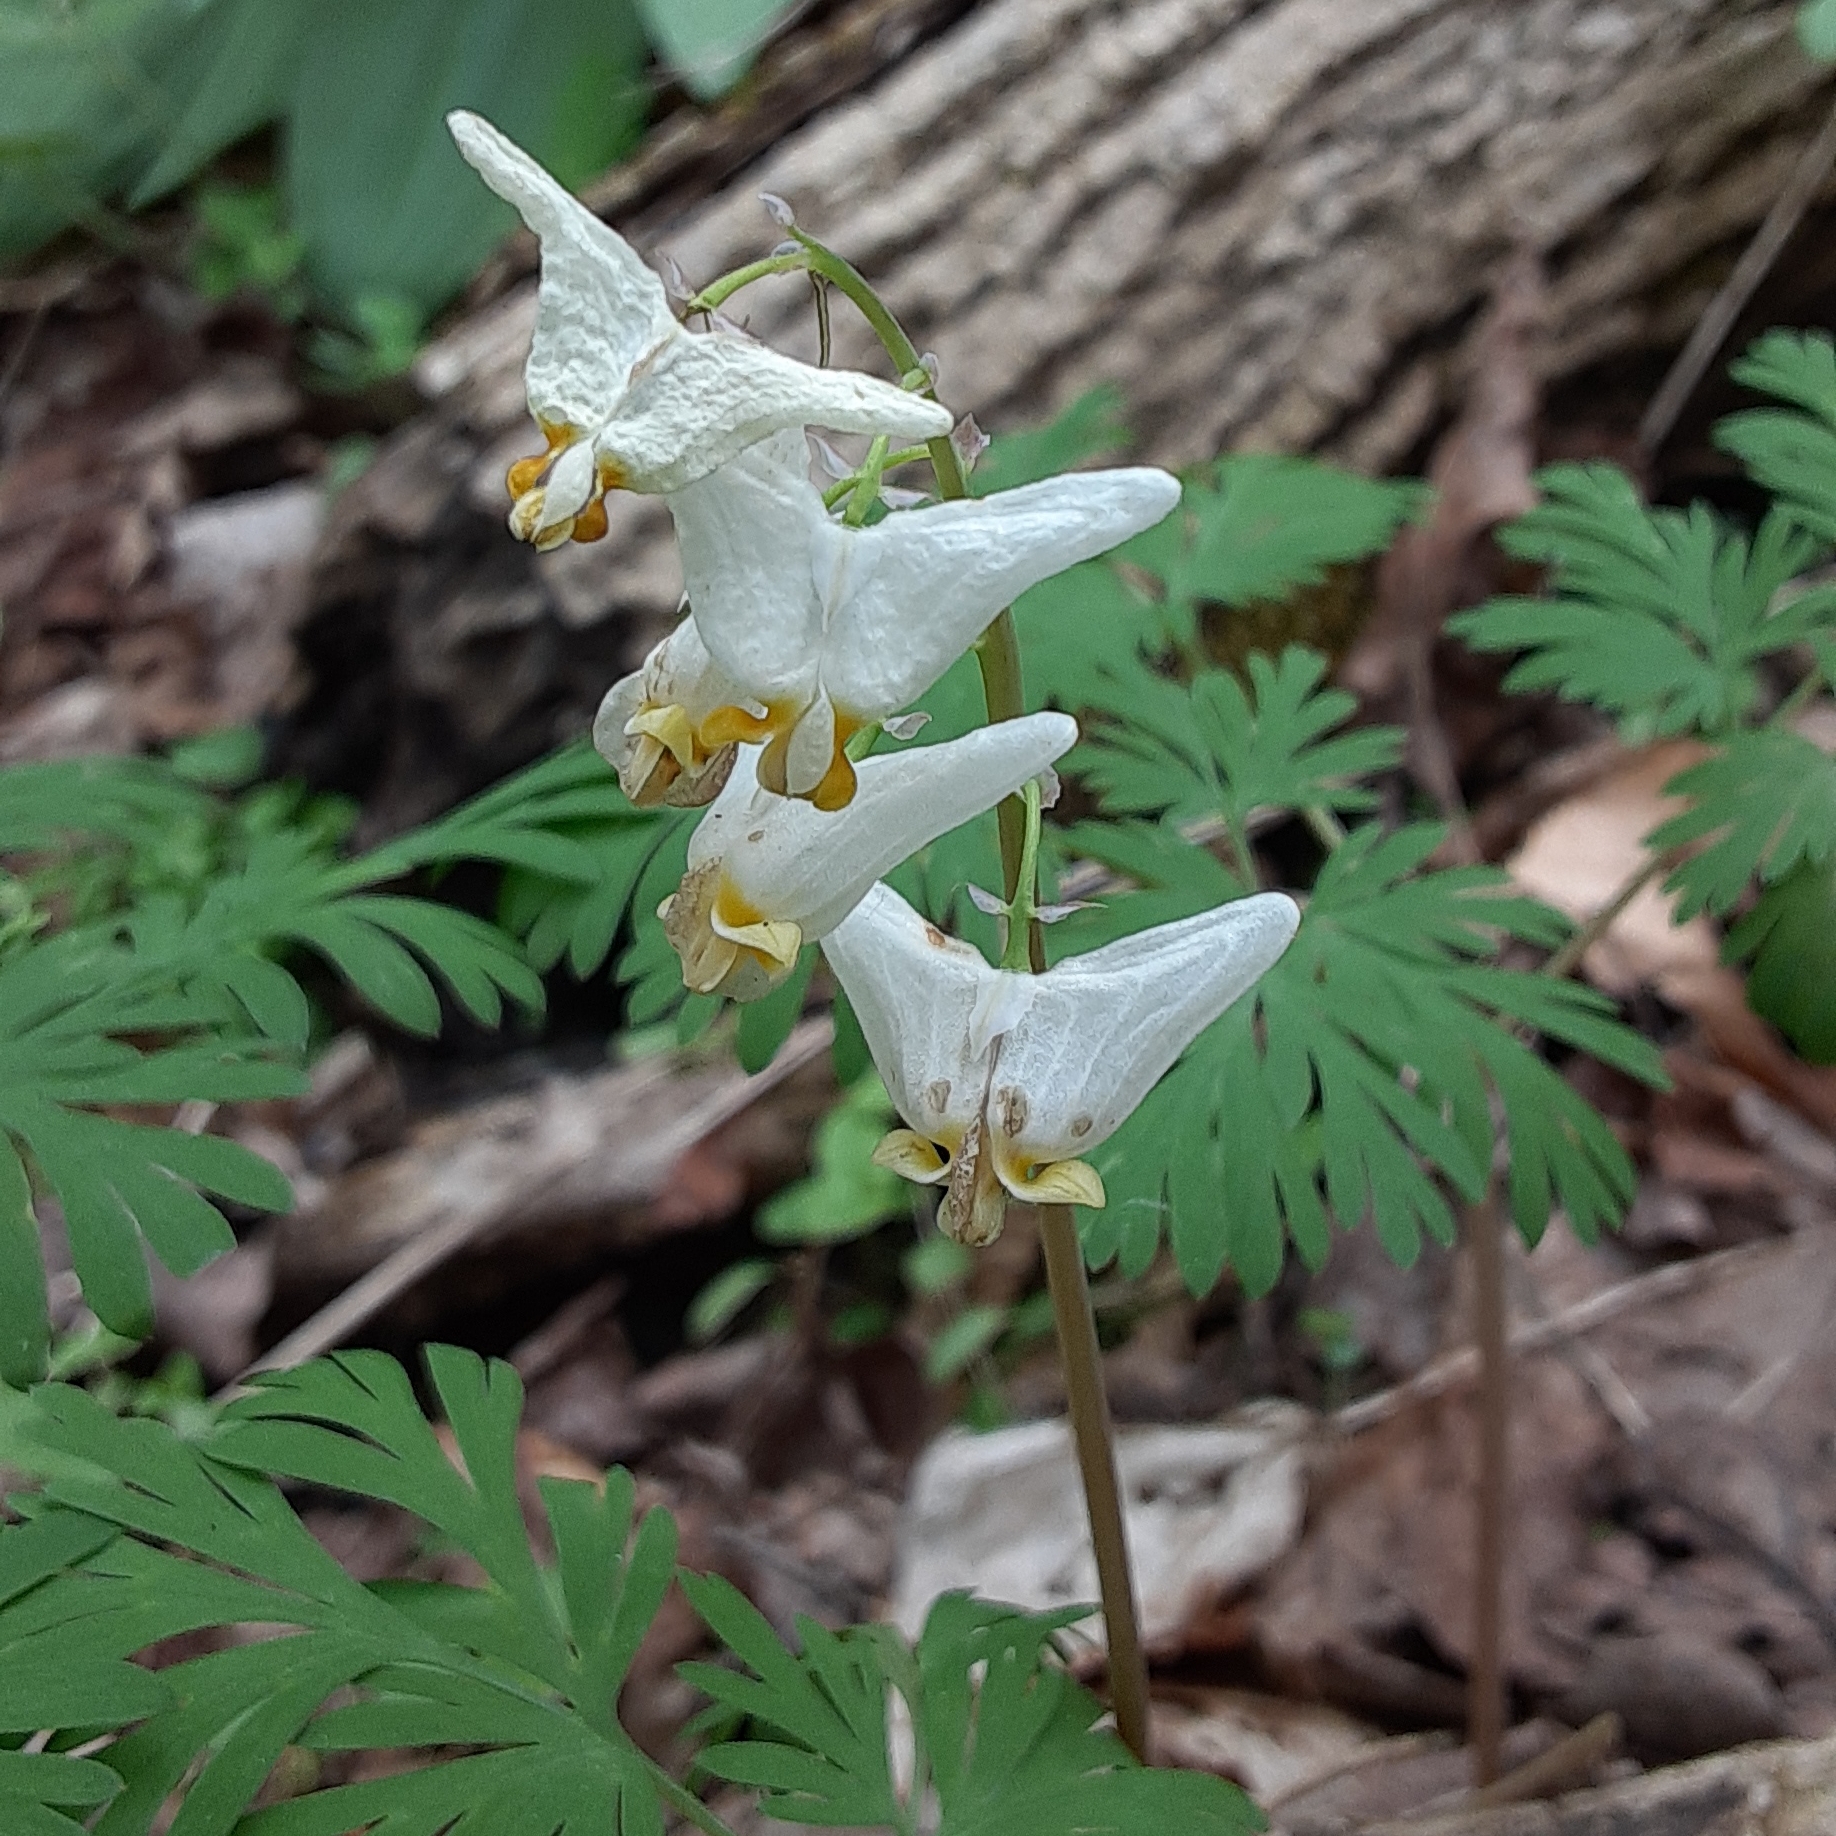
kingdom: Plantae
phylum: Tracheophyta
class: Magnoliopsida
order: Ranunculales
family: Papaveraceae
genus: Dicentra
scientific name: Dicentra cucullaria
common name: Dutchman's breeches
